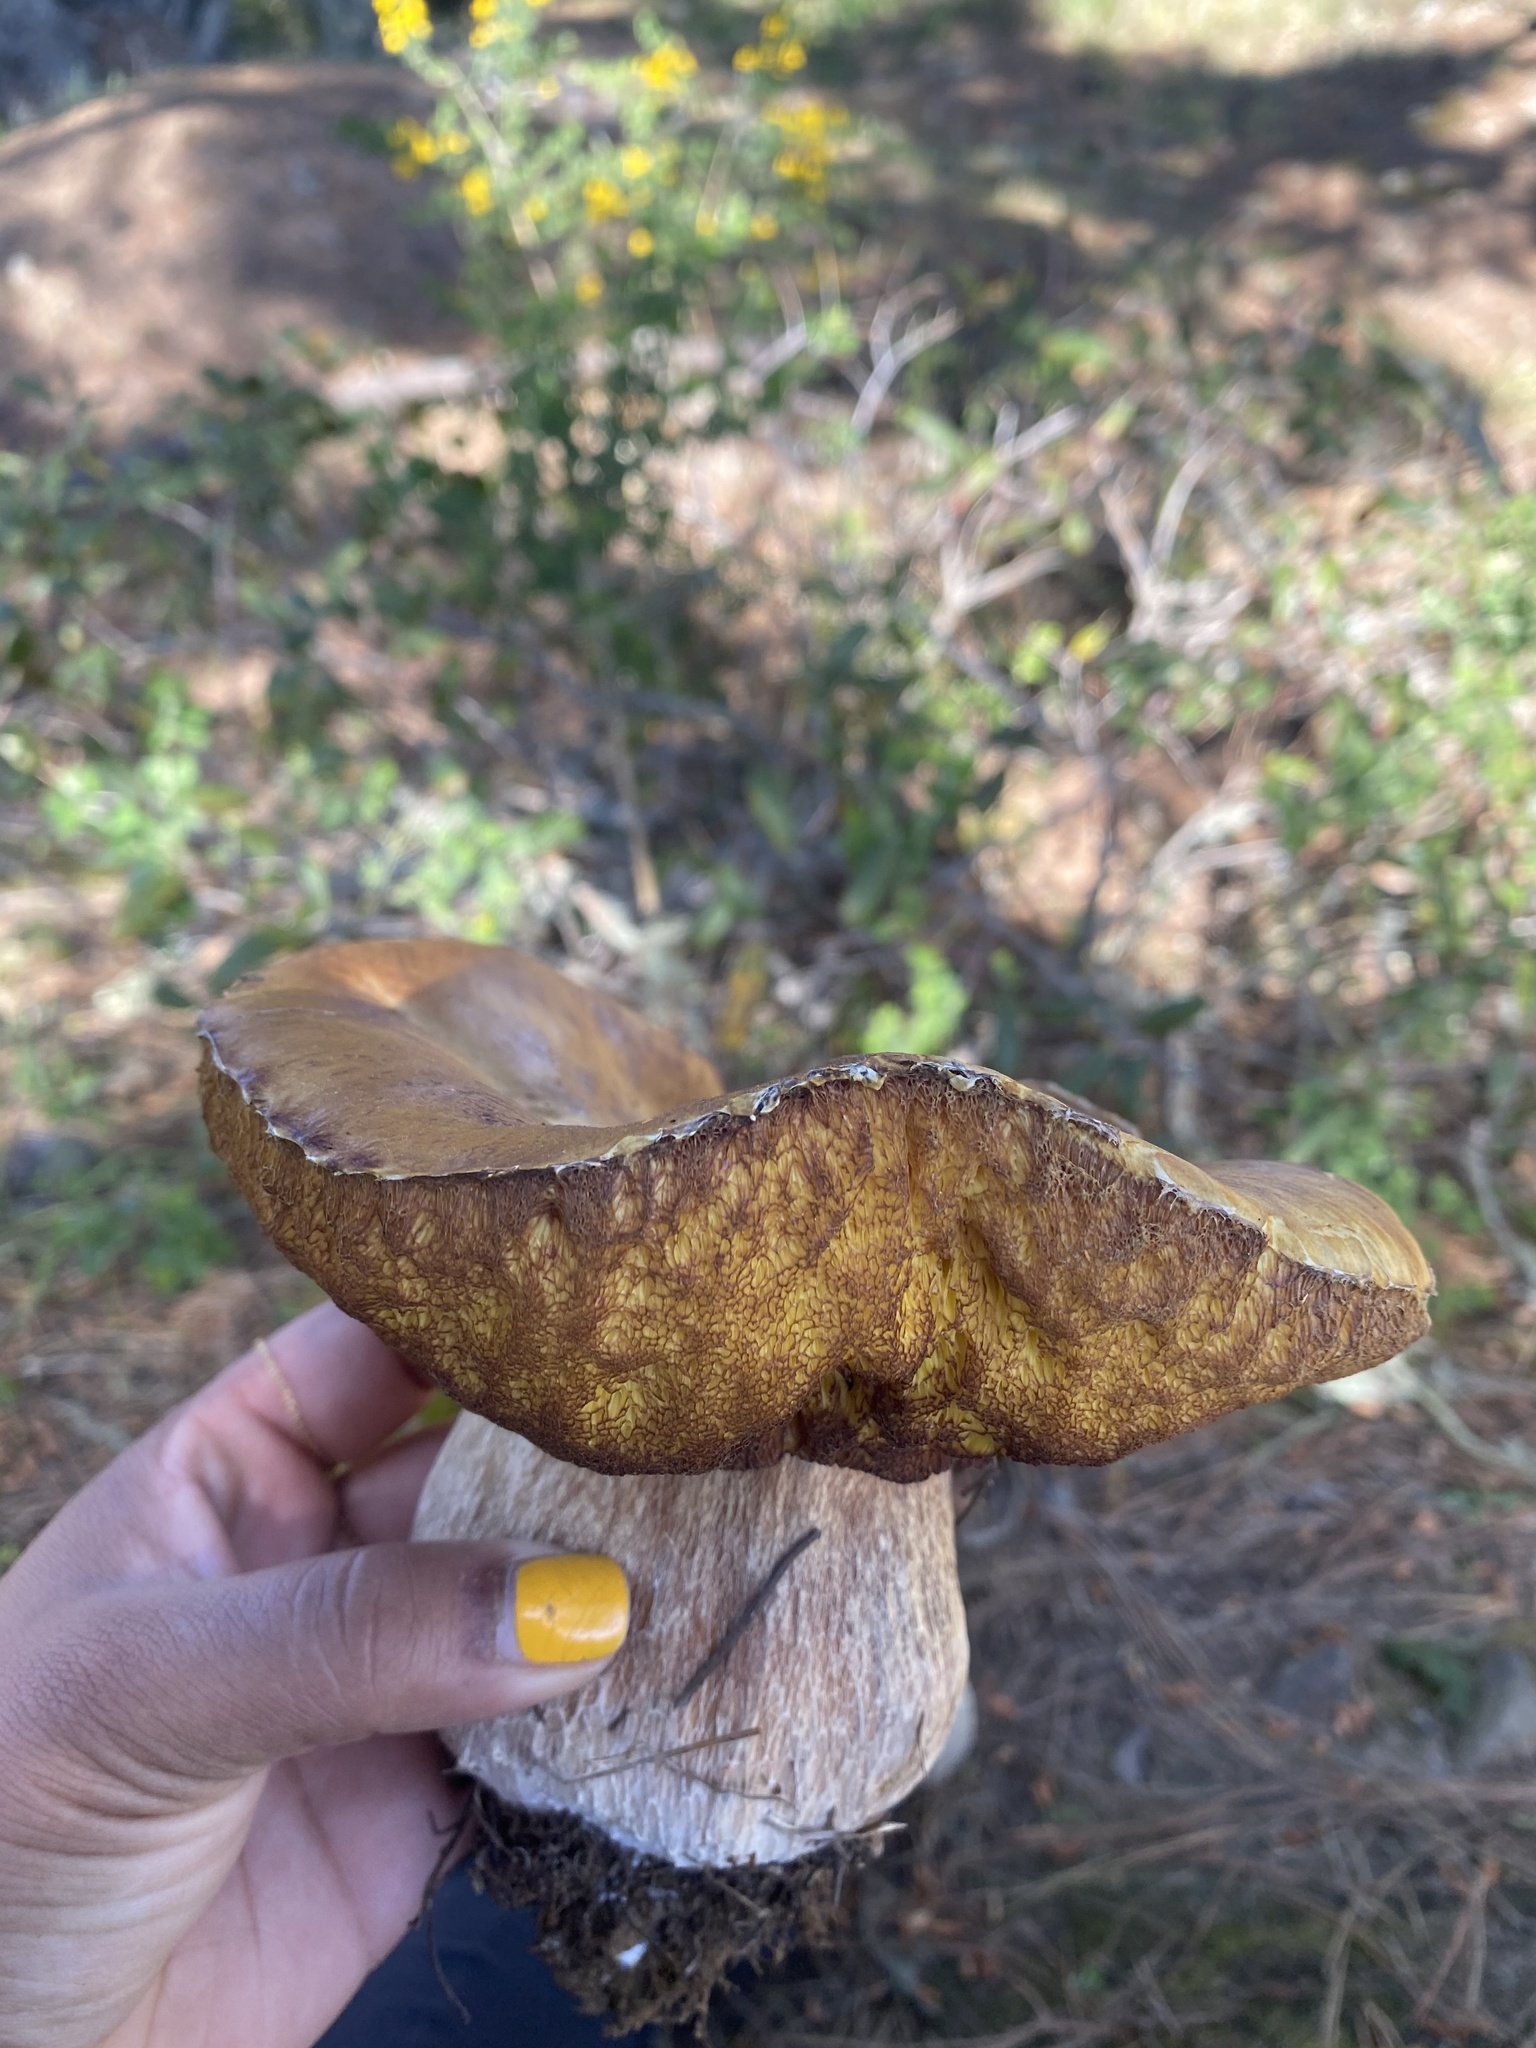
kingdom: Fungi
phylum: Basidiomycota
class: Agaricomycetes
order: Boletales
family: Boletaceae
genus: Boletus
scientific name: Boletus edulis
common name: Cep
